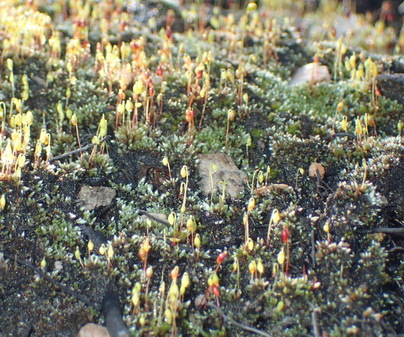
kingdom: Plantae
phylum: Bryophyta
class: Bryopsida
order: Bryales
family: Bryaceae
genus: Bryum
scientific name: Bryum argenteum
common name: Silver-moss
